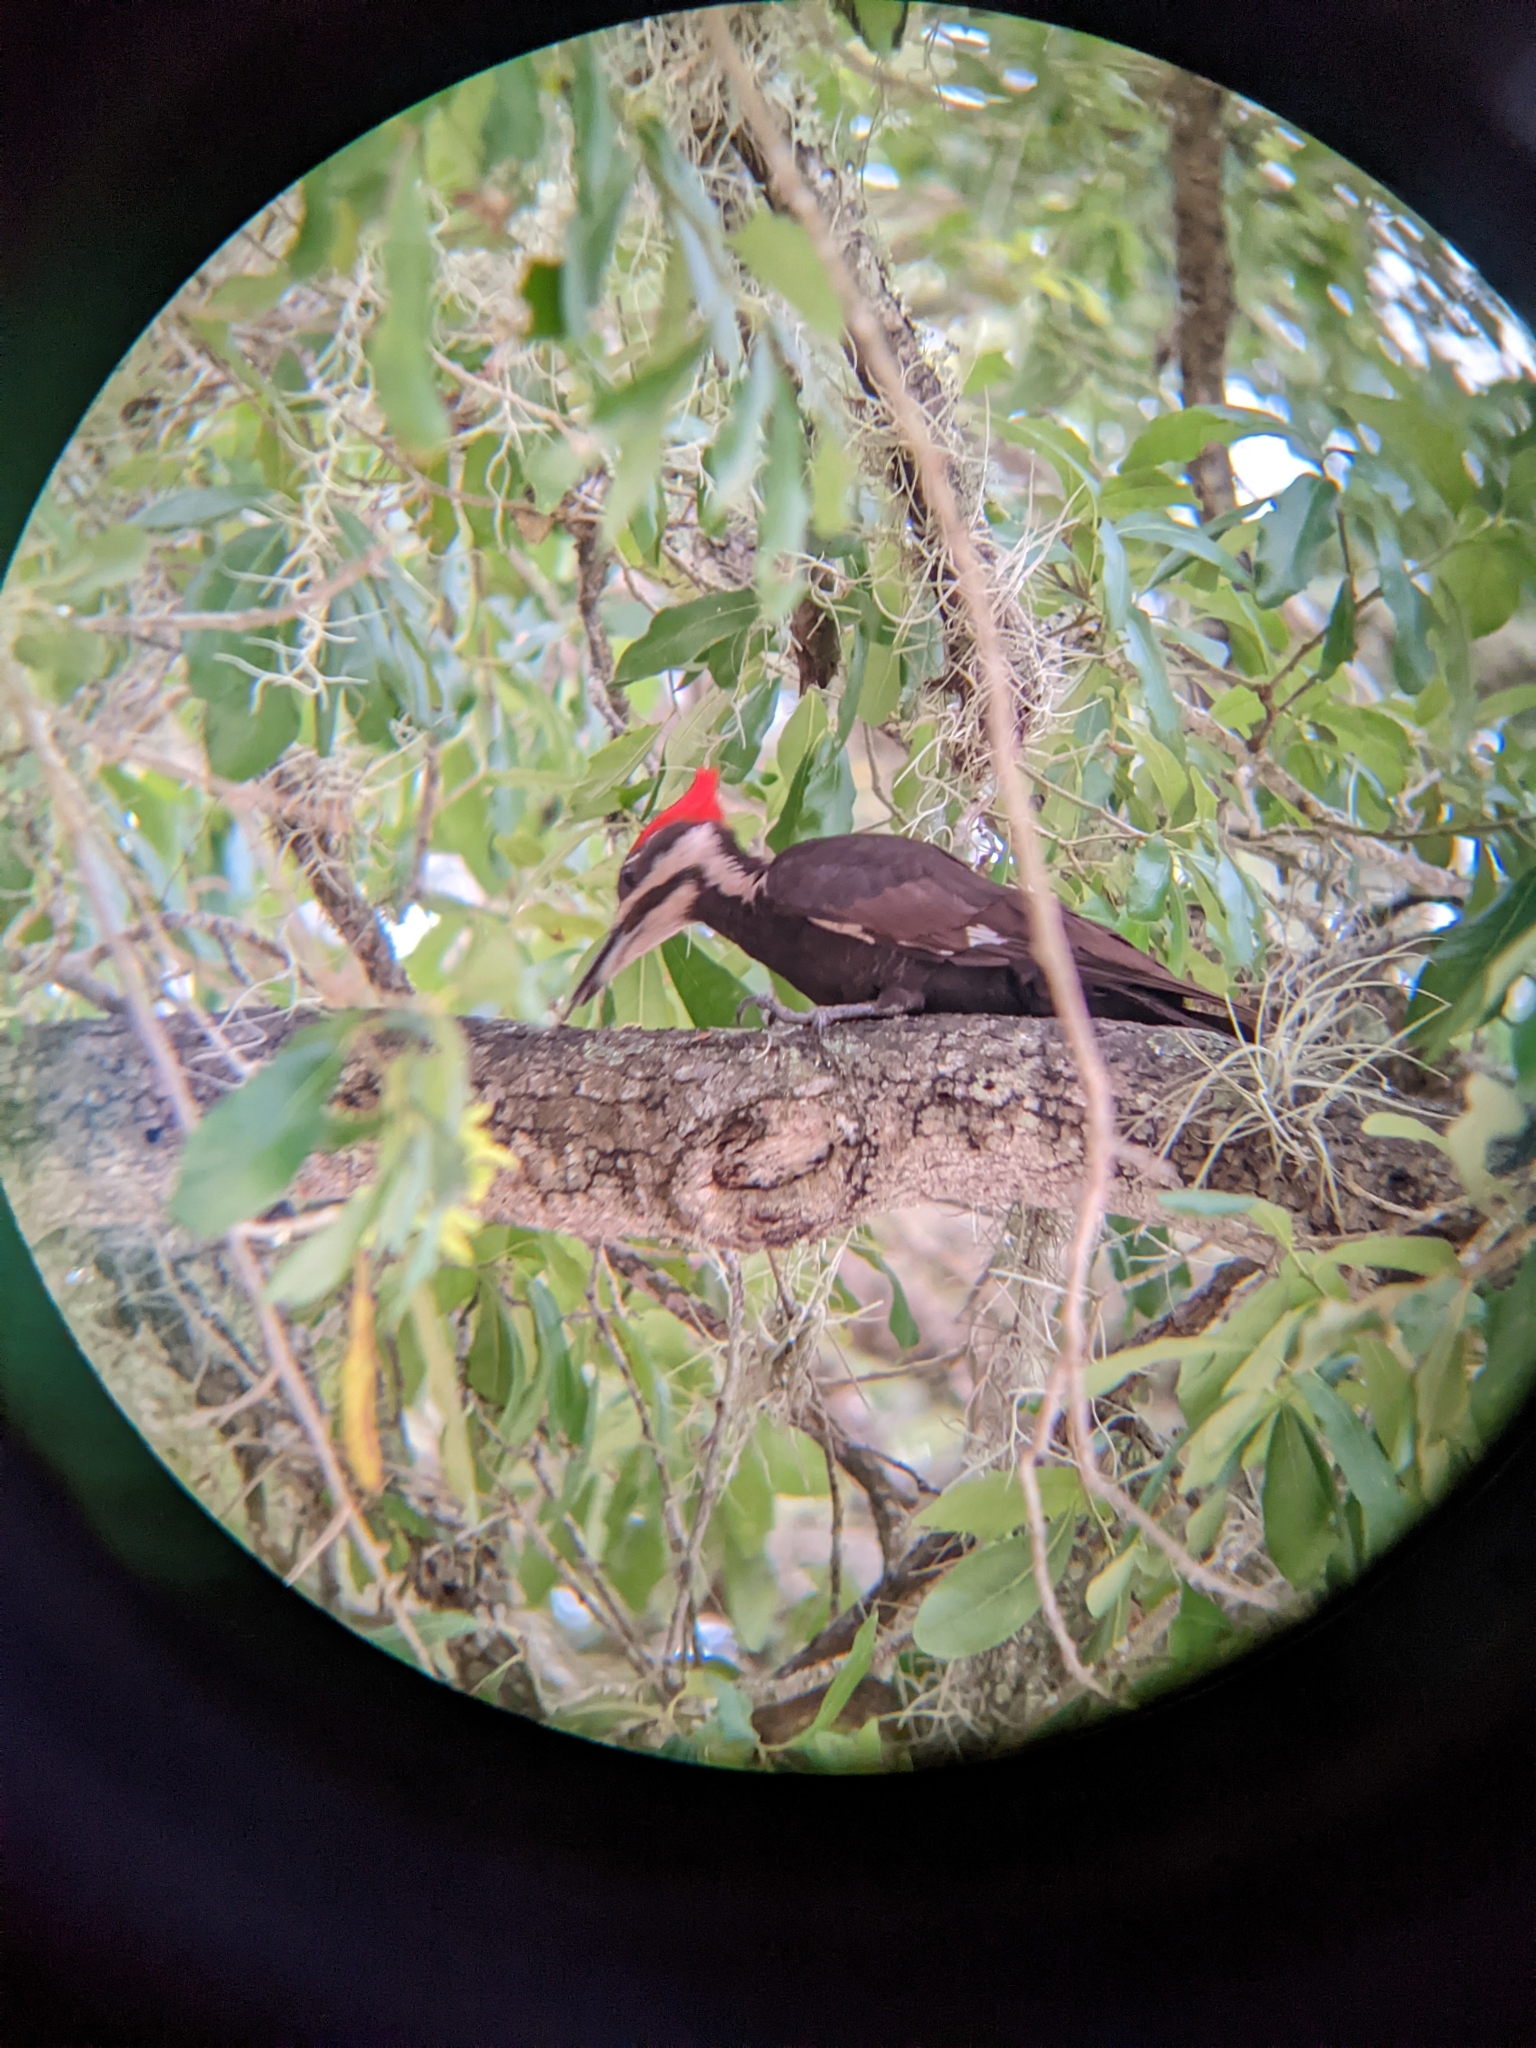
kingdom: Animalia
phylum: Chordata
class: Aves
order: Piciformes
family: Picidae
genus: Dryocopus
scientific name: Dryocopus pileatus
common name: Pileated woodpecker
